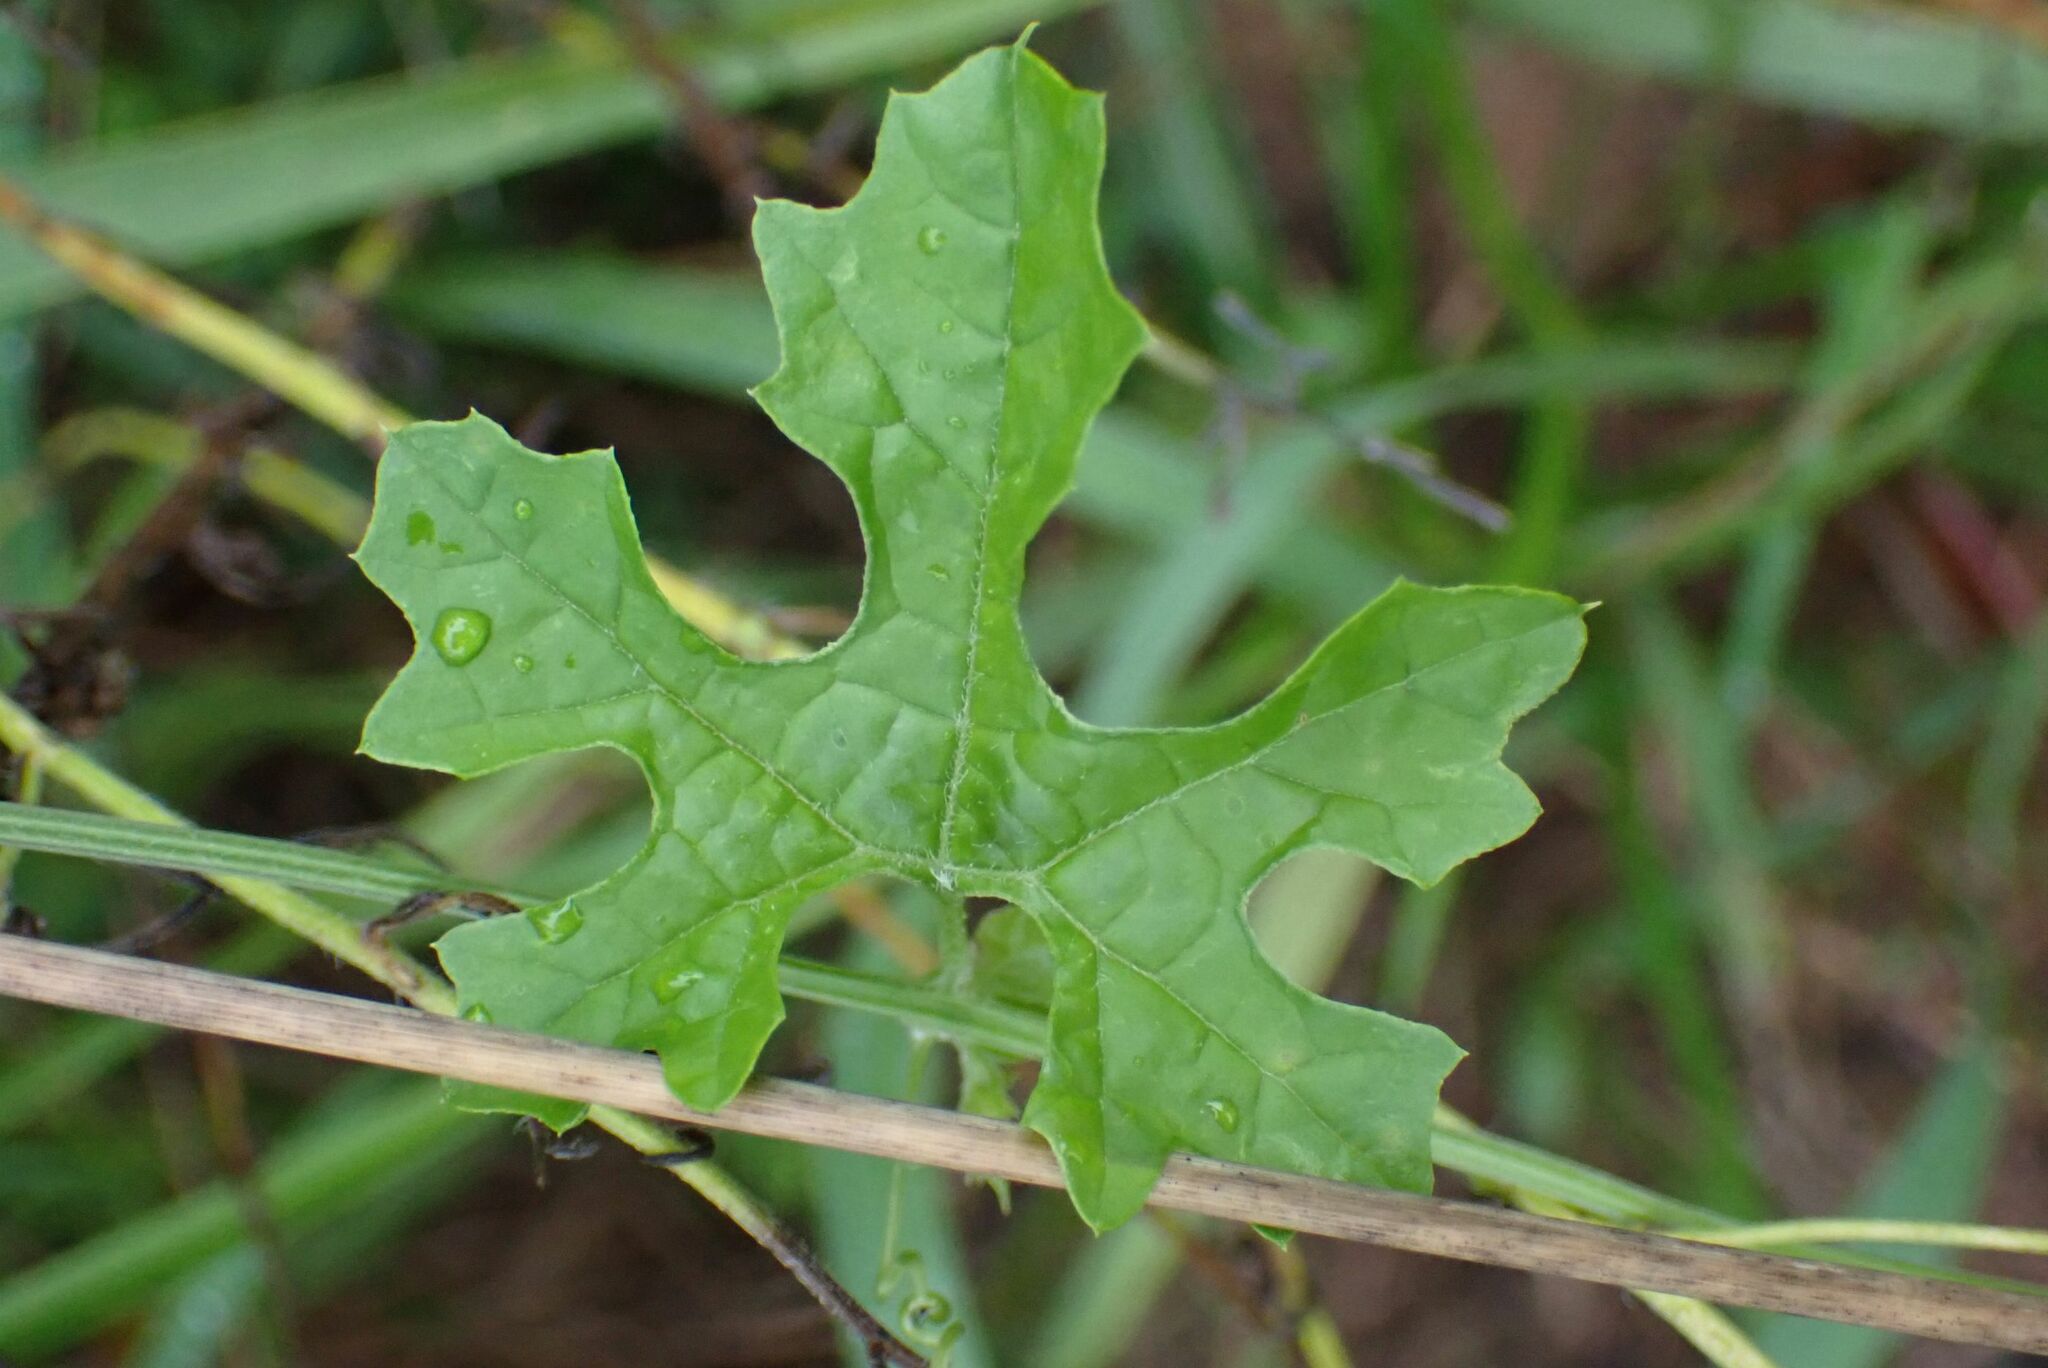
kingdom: Plantae
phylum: Tracheophyta
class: Magnoliopsida
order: Cucurbitales
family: Cucurbitaceae
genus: Momordica
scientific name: Momordica balsamina
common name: Southern balsampear
